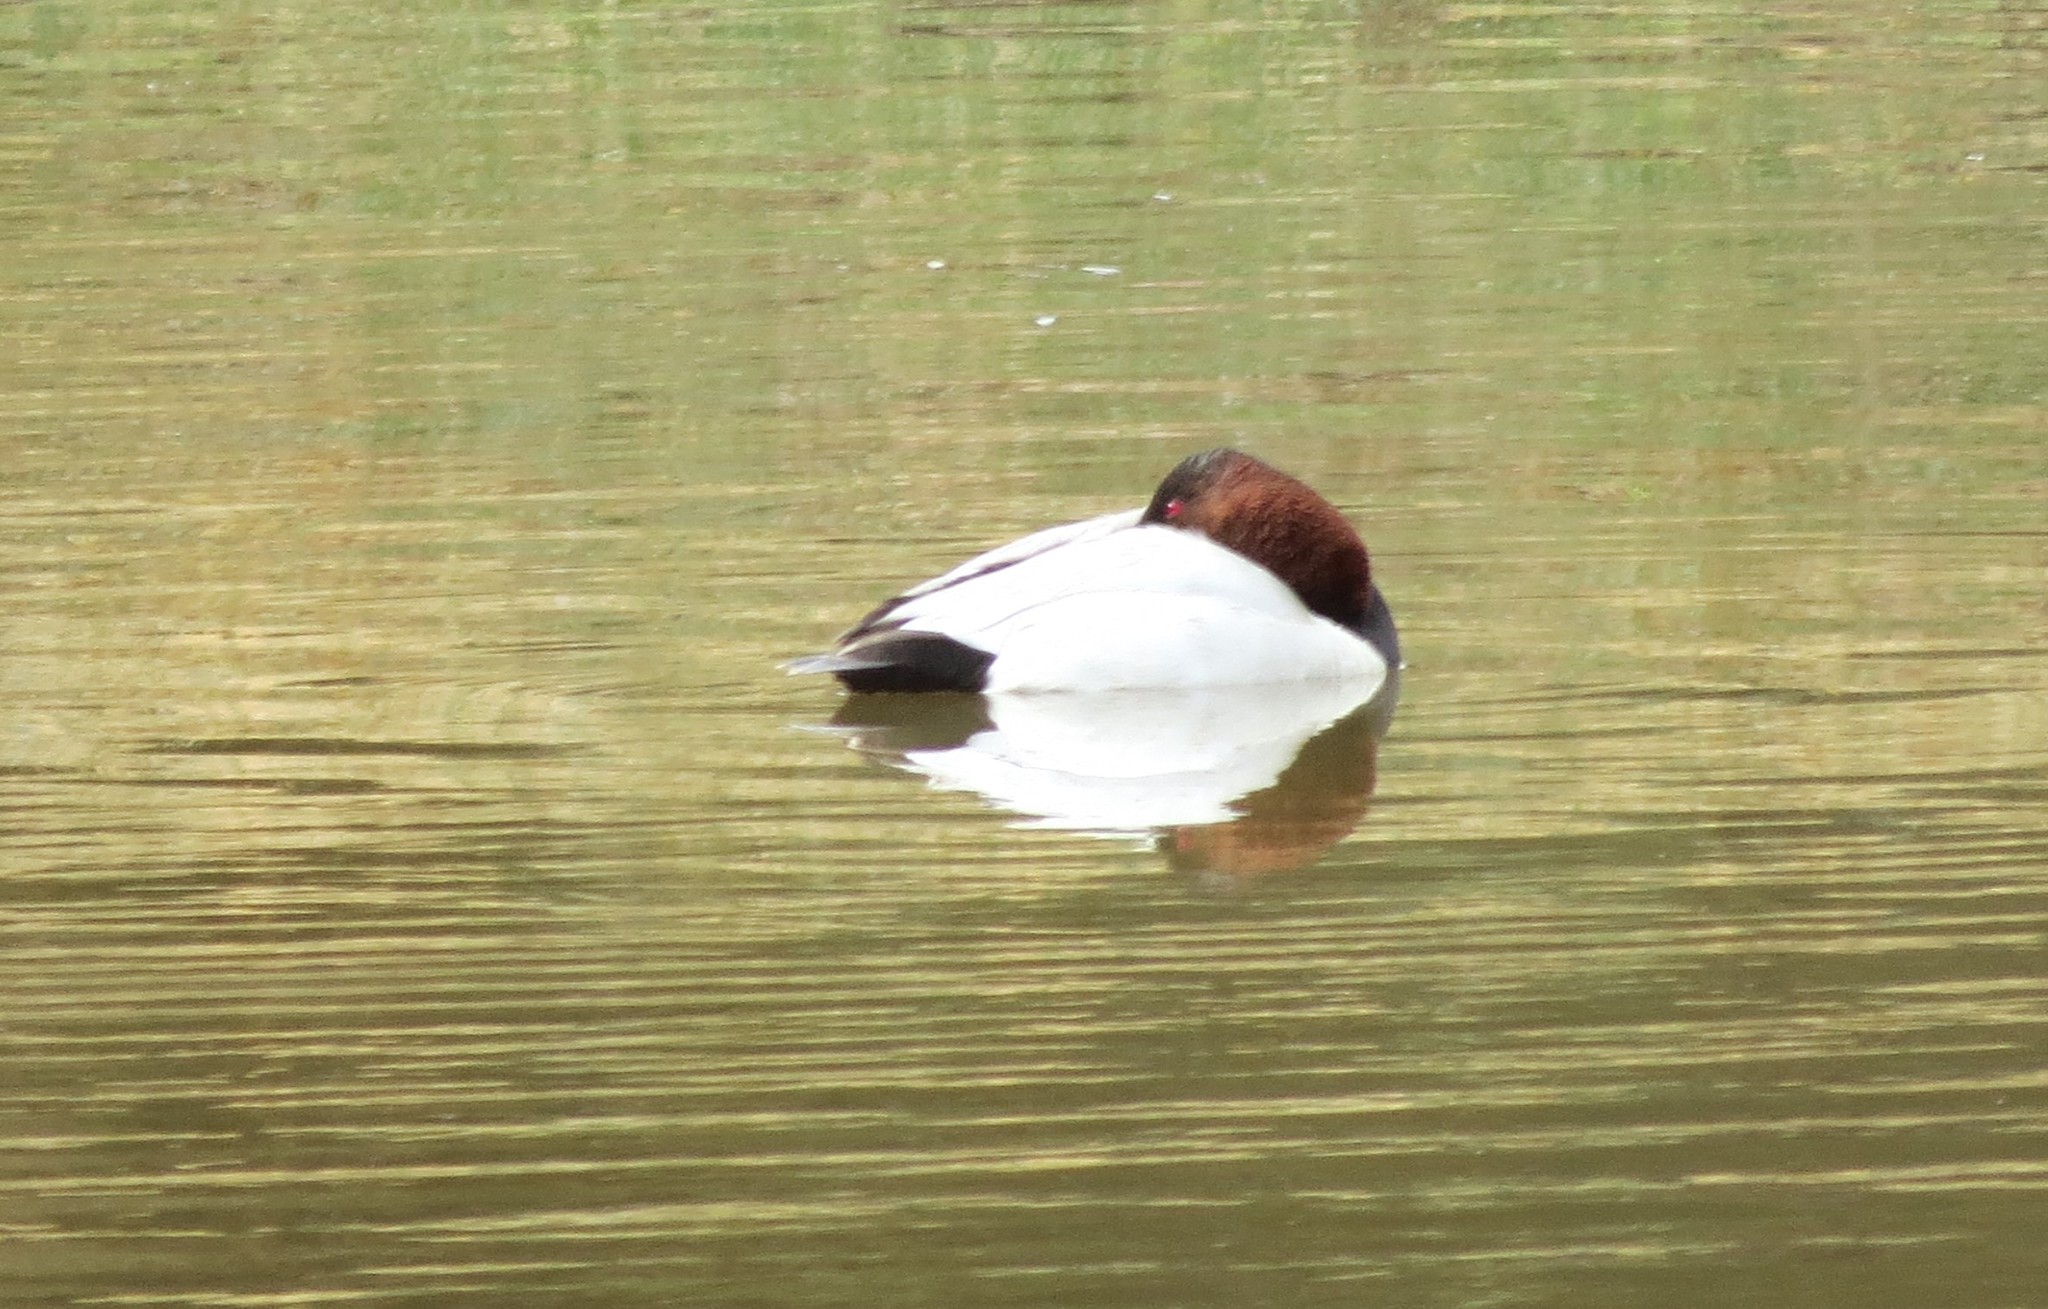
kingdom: Animalia
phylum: Chordata
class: Aves
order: Anseriformes
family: Anatidae
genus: Aythya
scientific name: Aythya valisineria
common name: Canvasback
